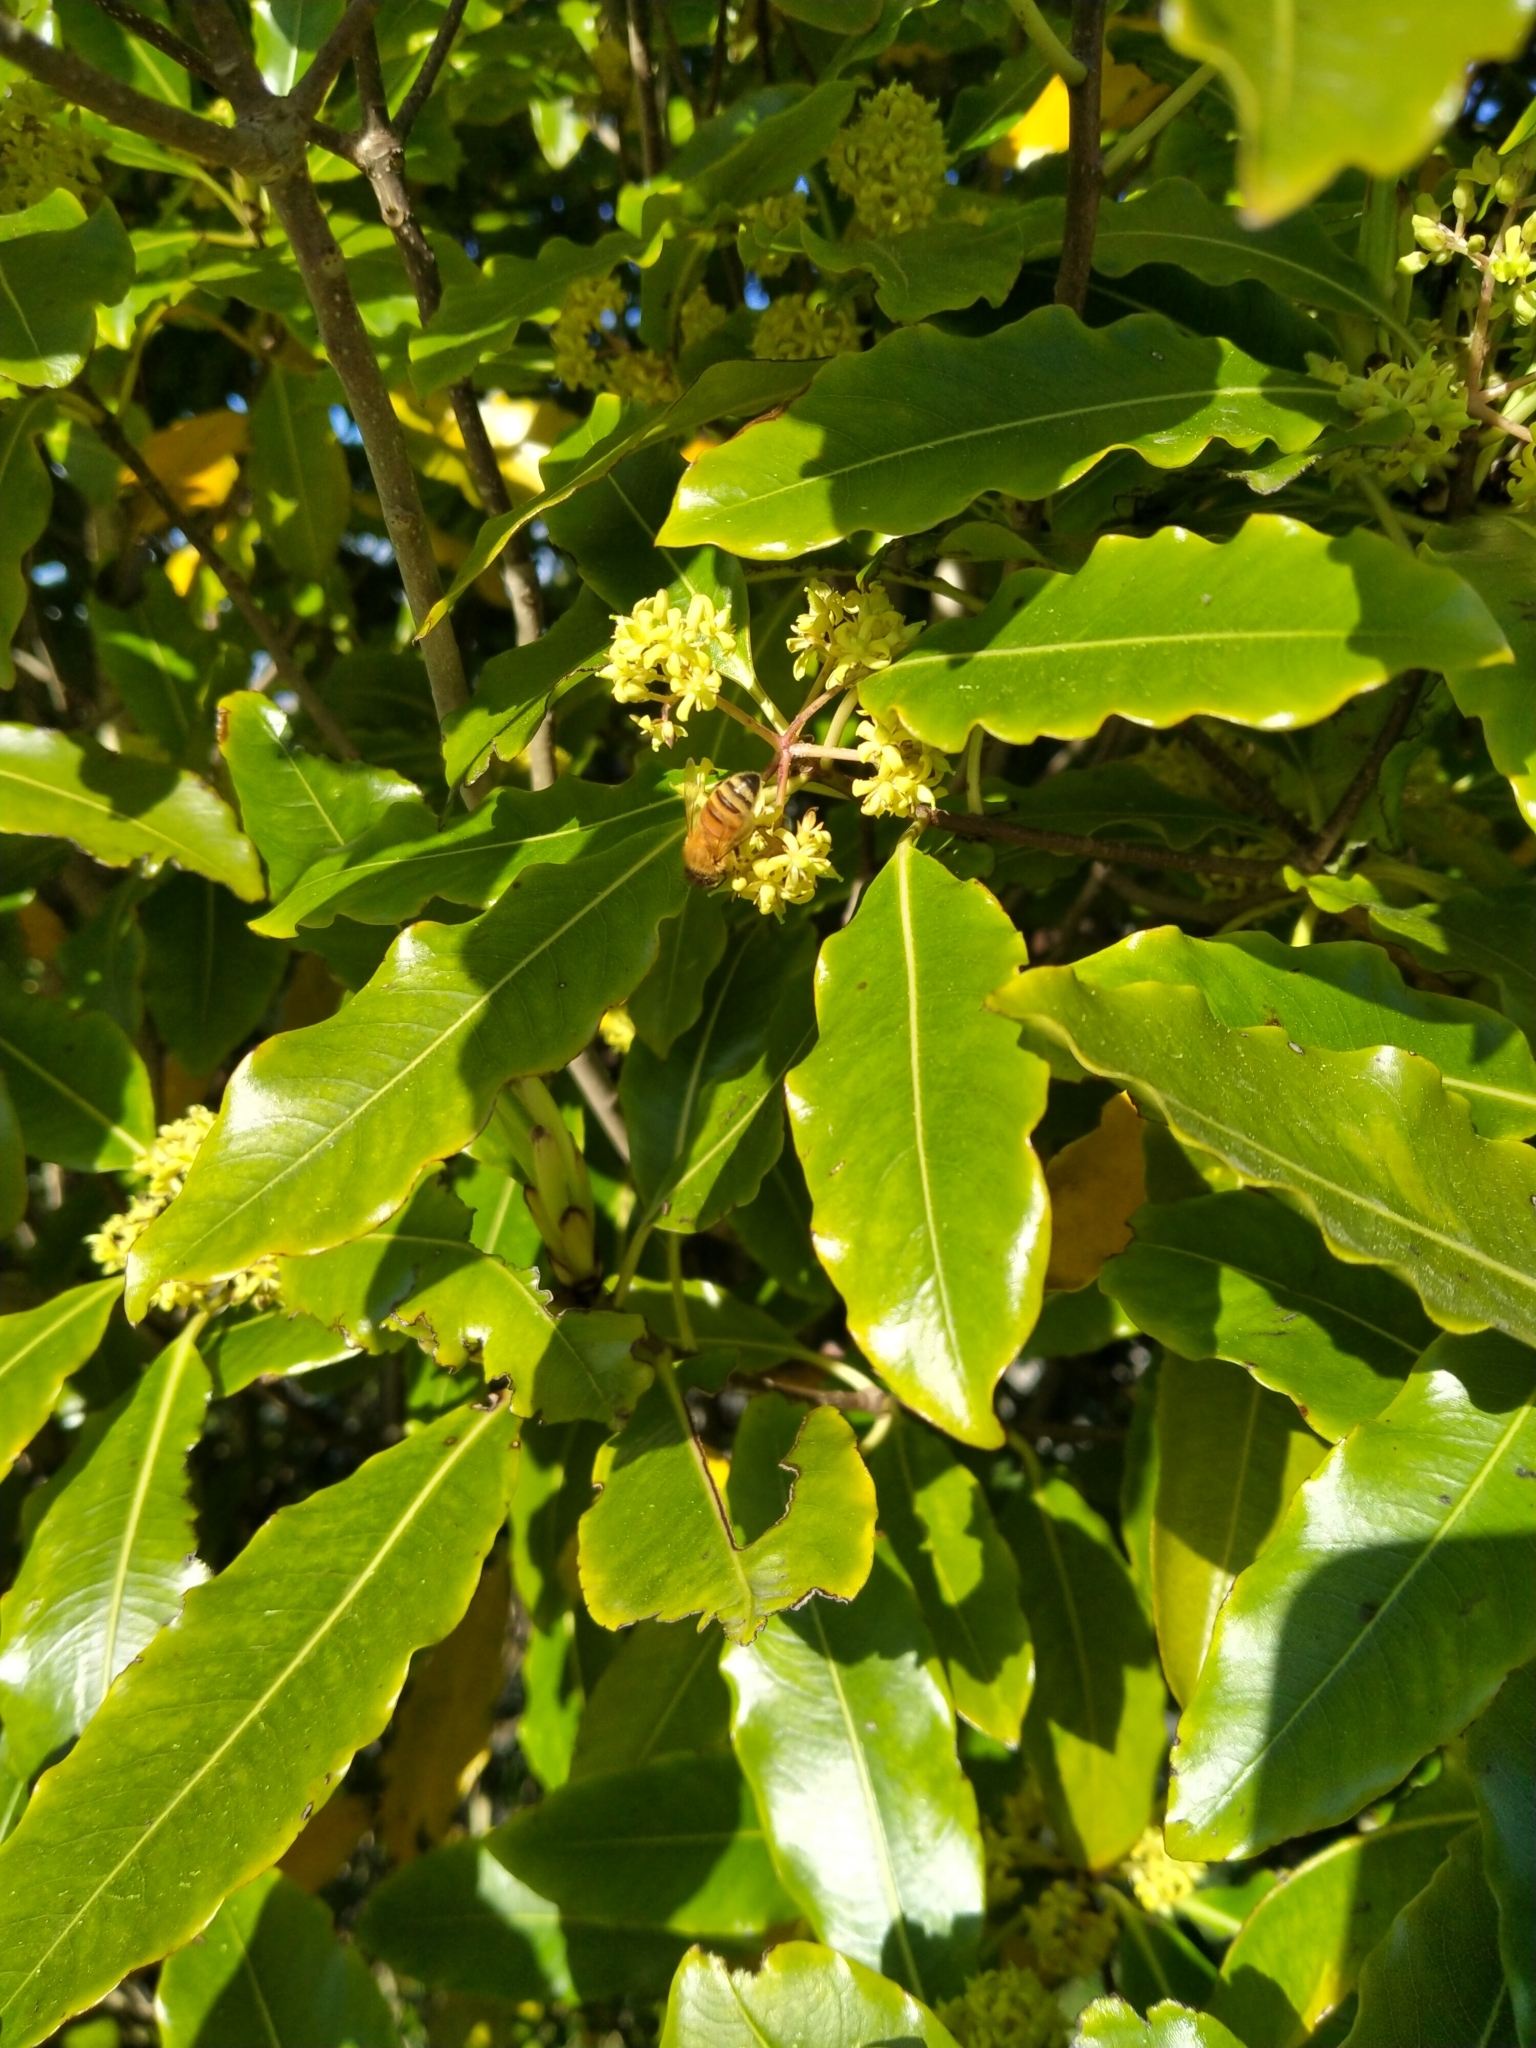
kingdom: Plantae
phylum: Tracheophyta
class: Magnoliopsida
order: Apiales
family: Pittosporaceae
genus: Pittosporum
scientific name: Pittosporum eugenioides
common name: Lemonwood
